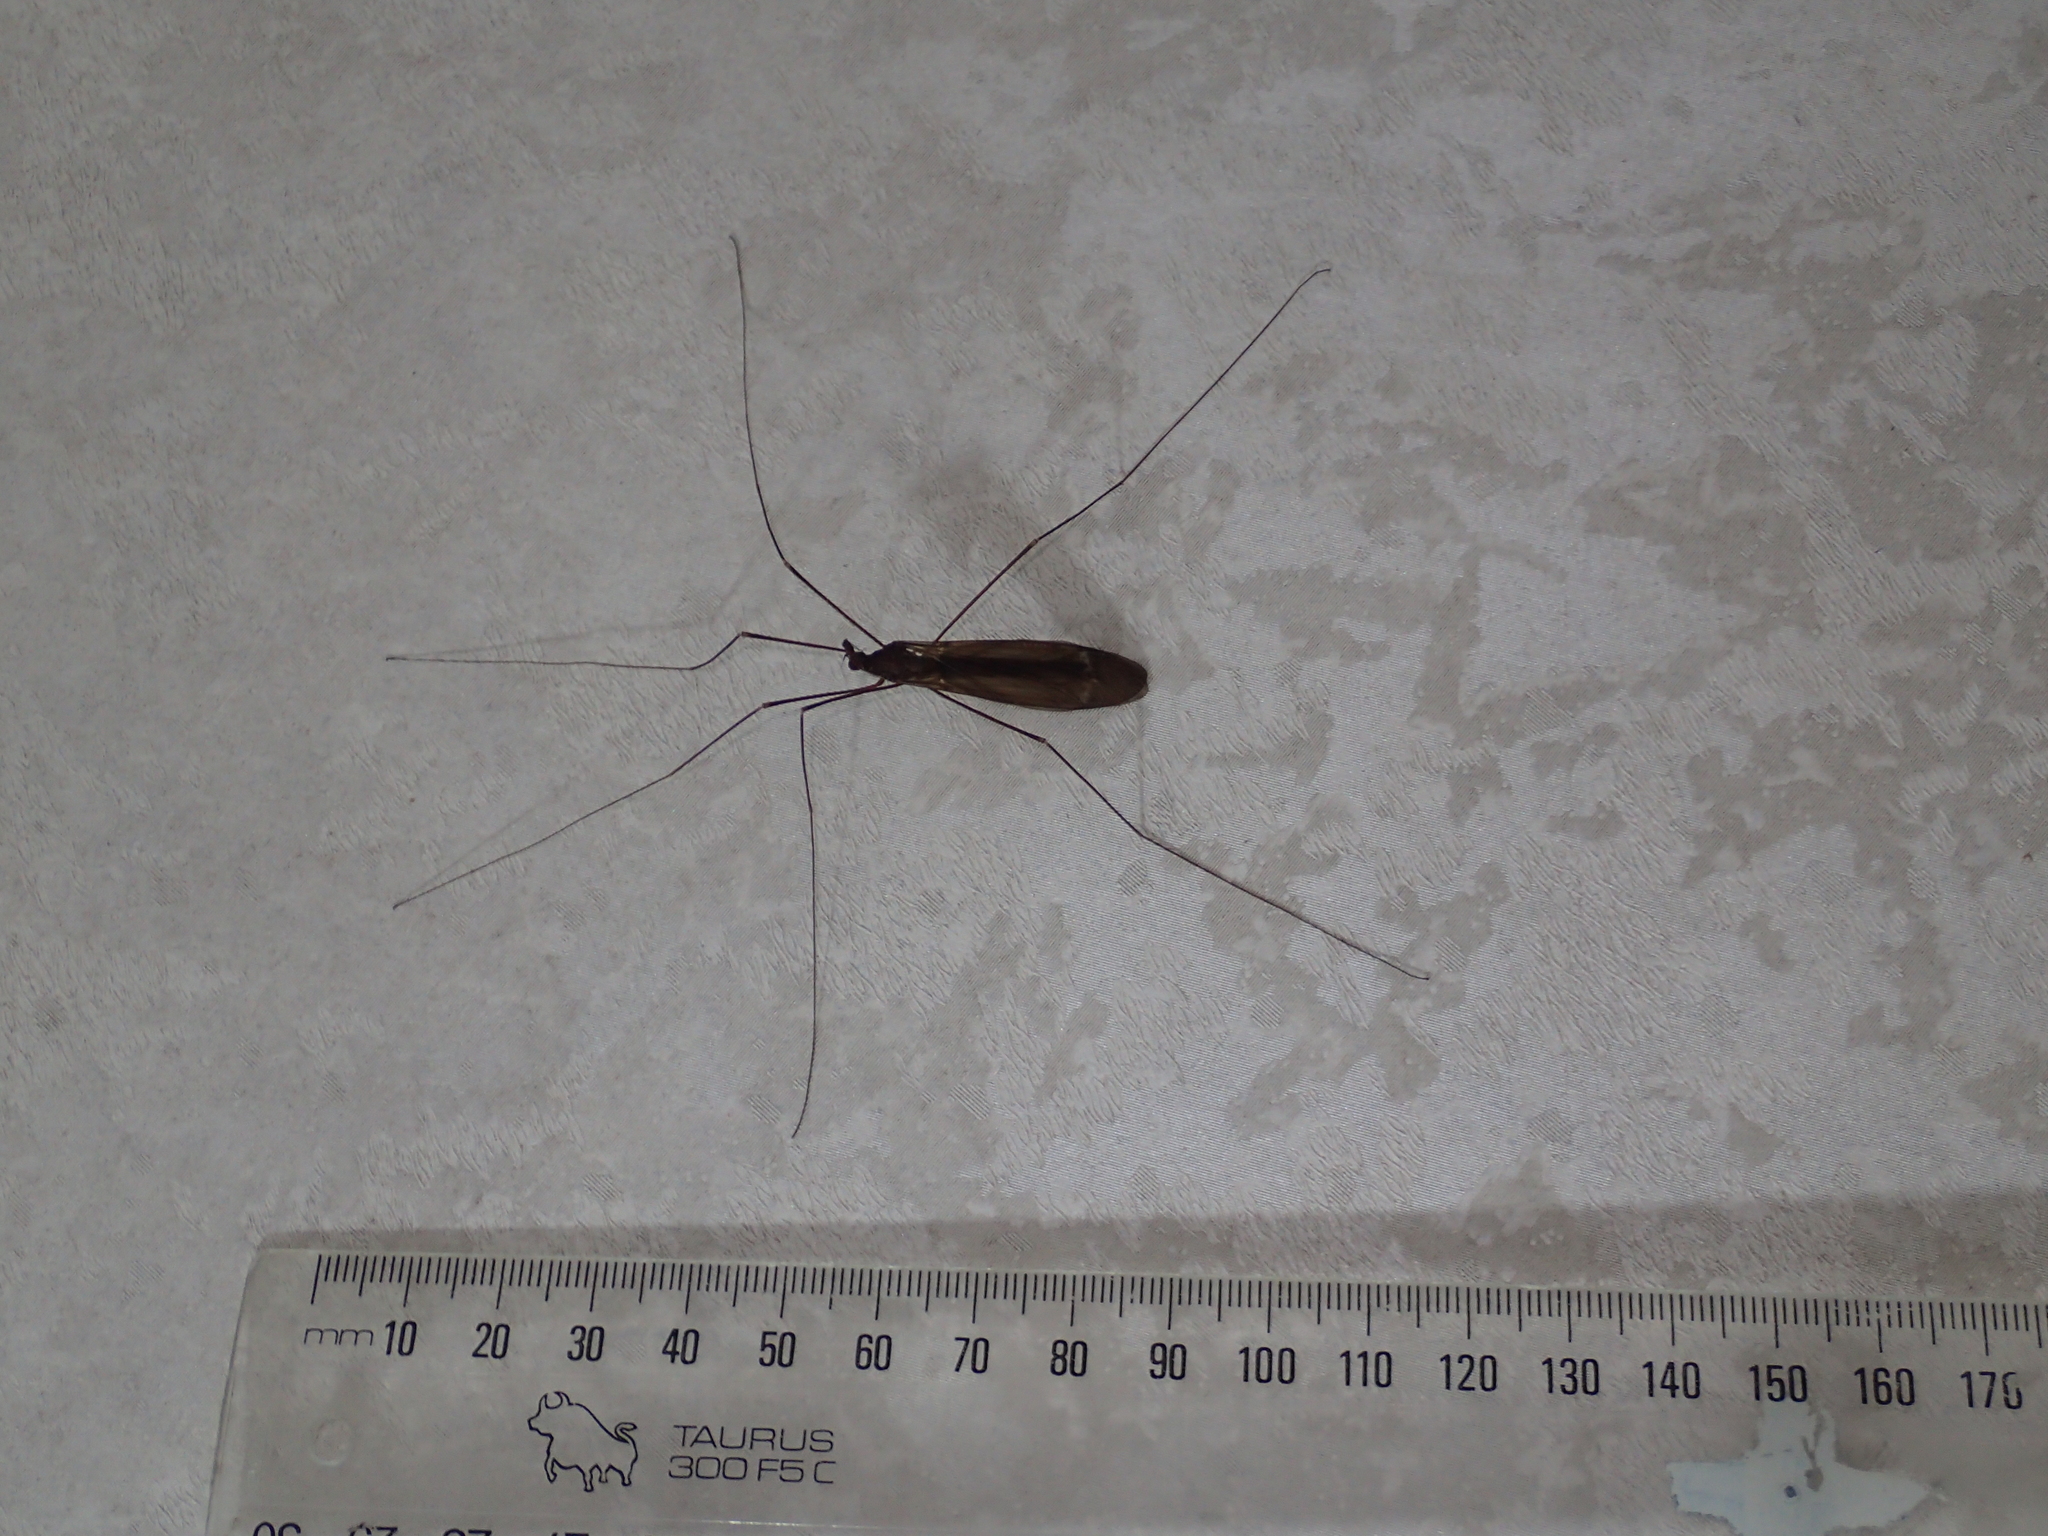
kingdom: Animalia
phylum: Arthropoda
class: Insecta
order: Diptera
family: Tipulidae
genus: Austrotipula
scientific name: Austrotipula hudsoni
